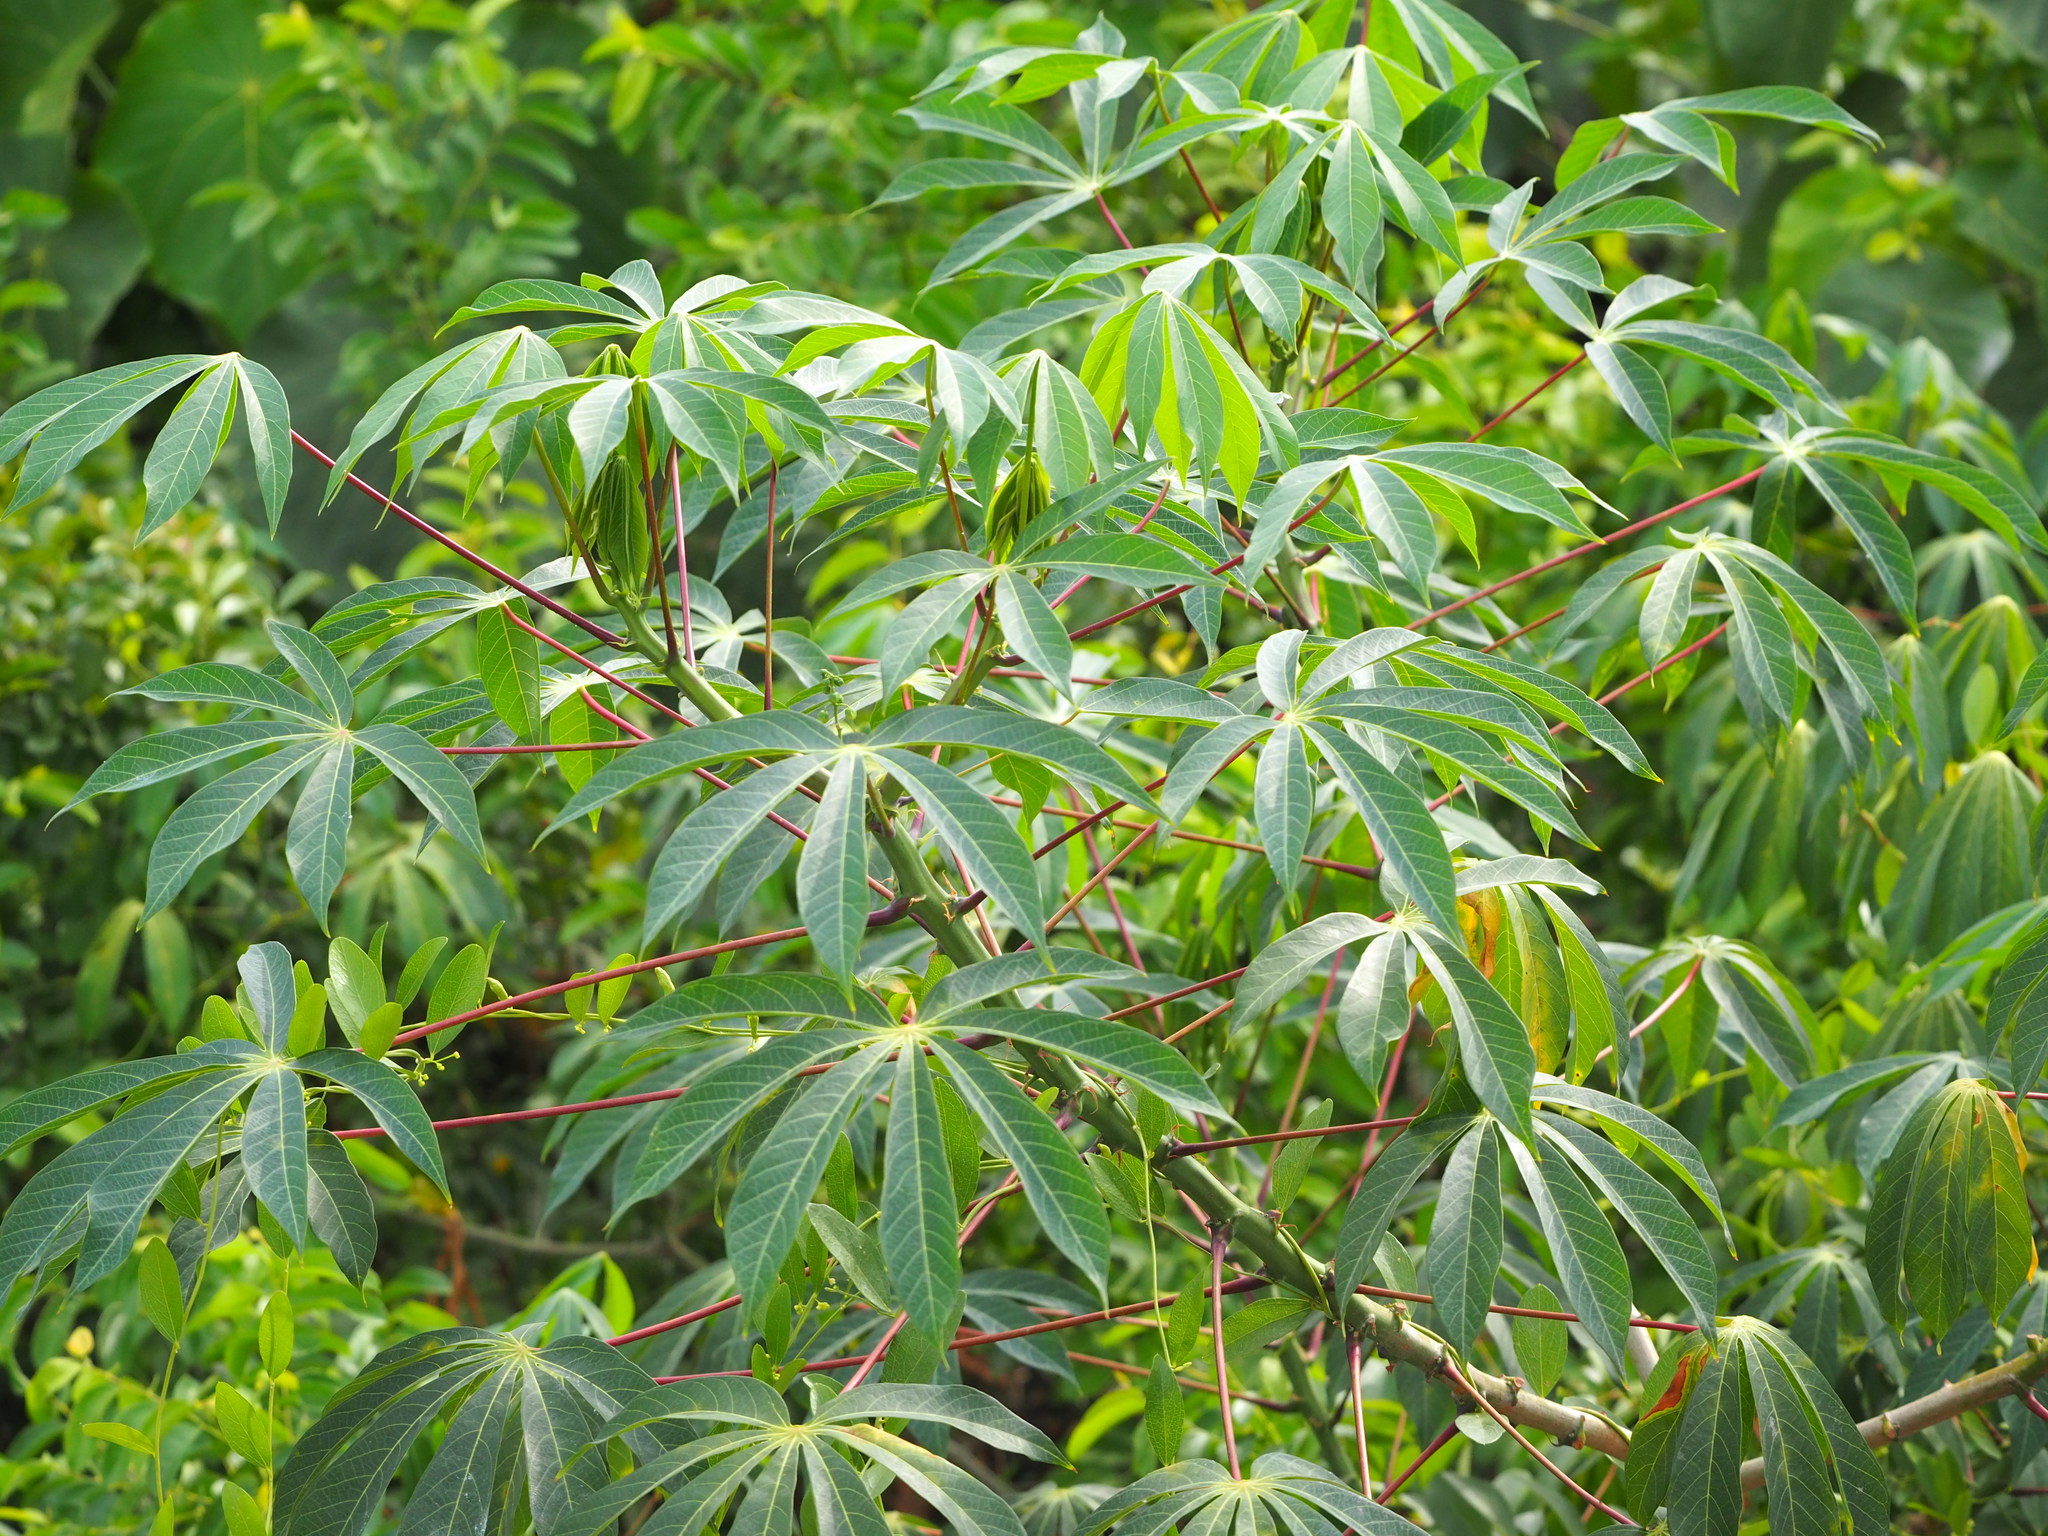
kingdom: Plantae
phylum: Tracheophyta
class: Magnoliopsida
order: Malpighiales
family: Euphorbiaceae
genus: Manihot
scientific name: Manihot esculenta
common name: Cassava
